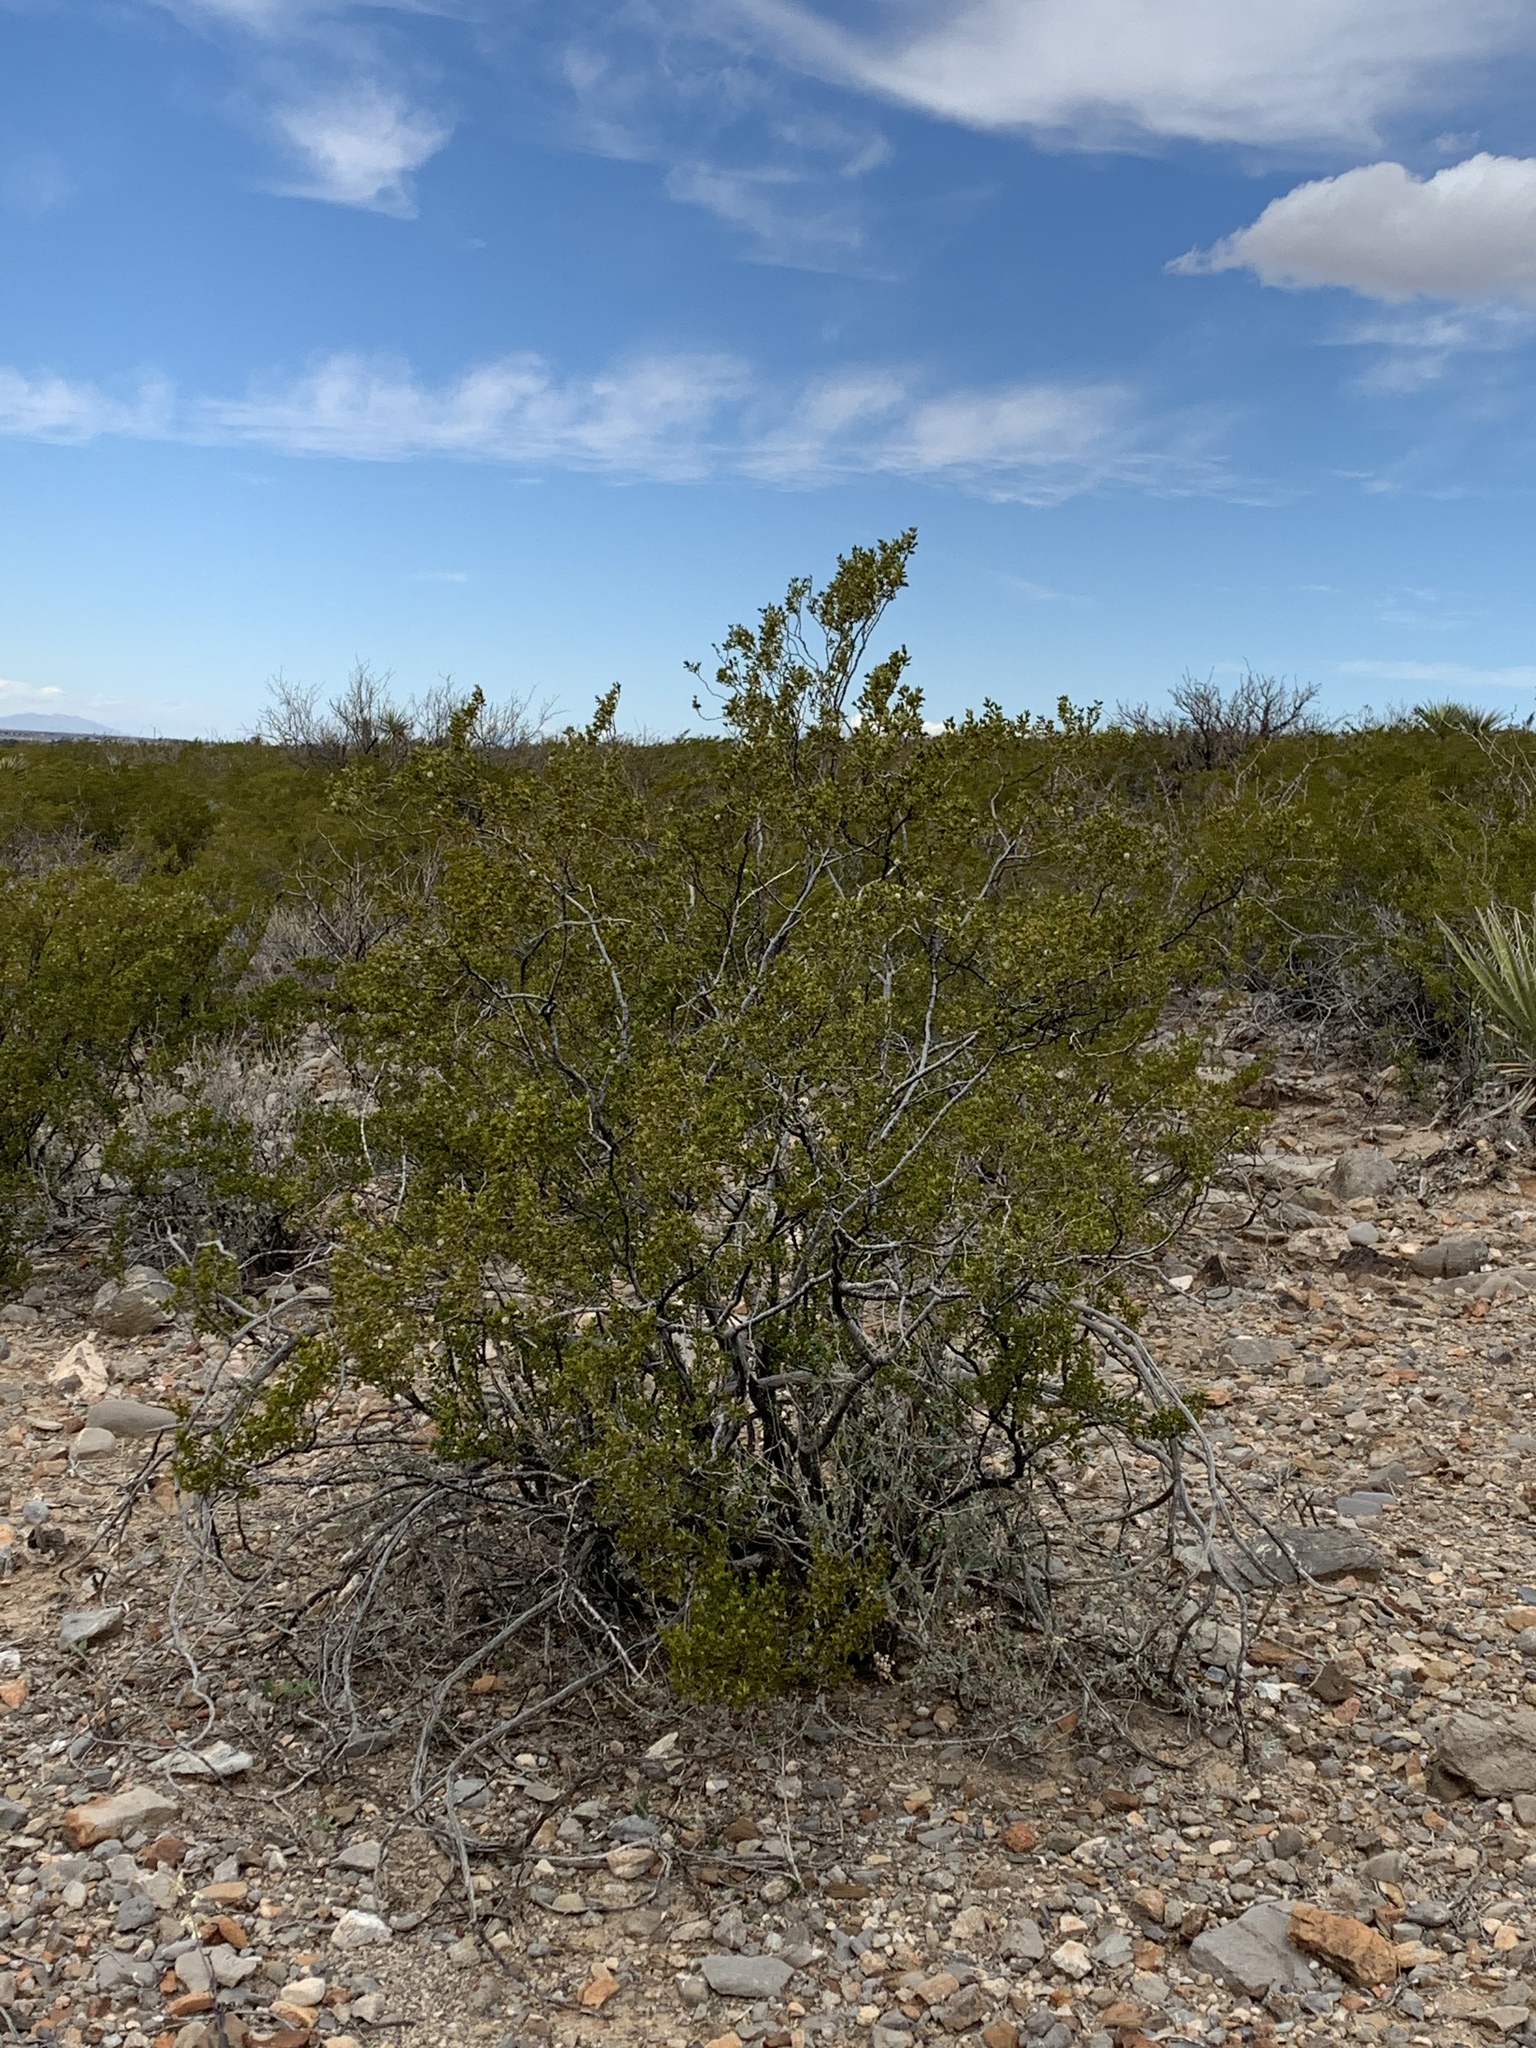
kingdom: Plantae
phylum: Tracheophyta
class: Magnoliopsida
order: Zygophyllales
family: Zygophyllaceae
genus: Larrea
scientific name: Larrea tridentata
